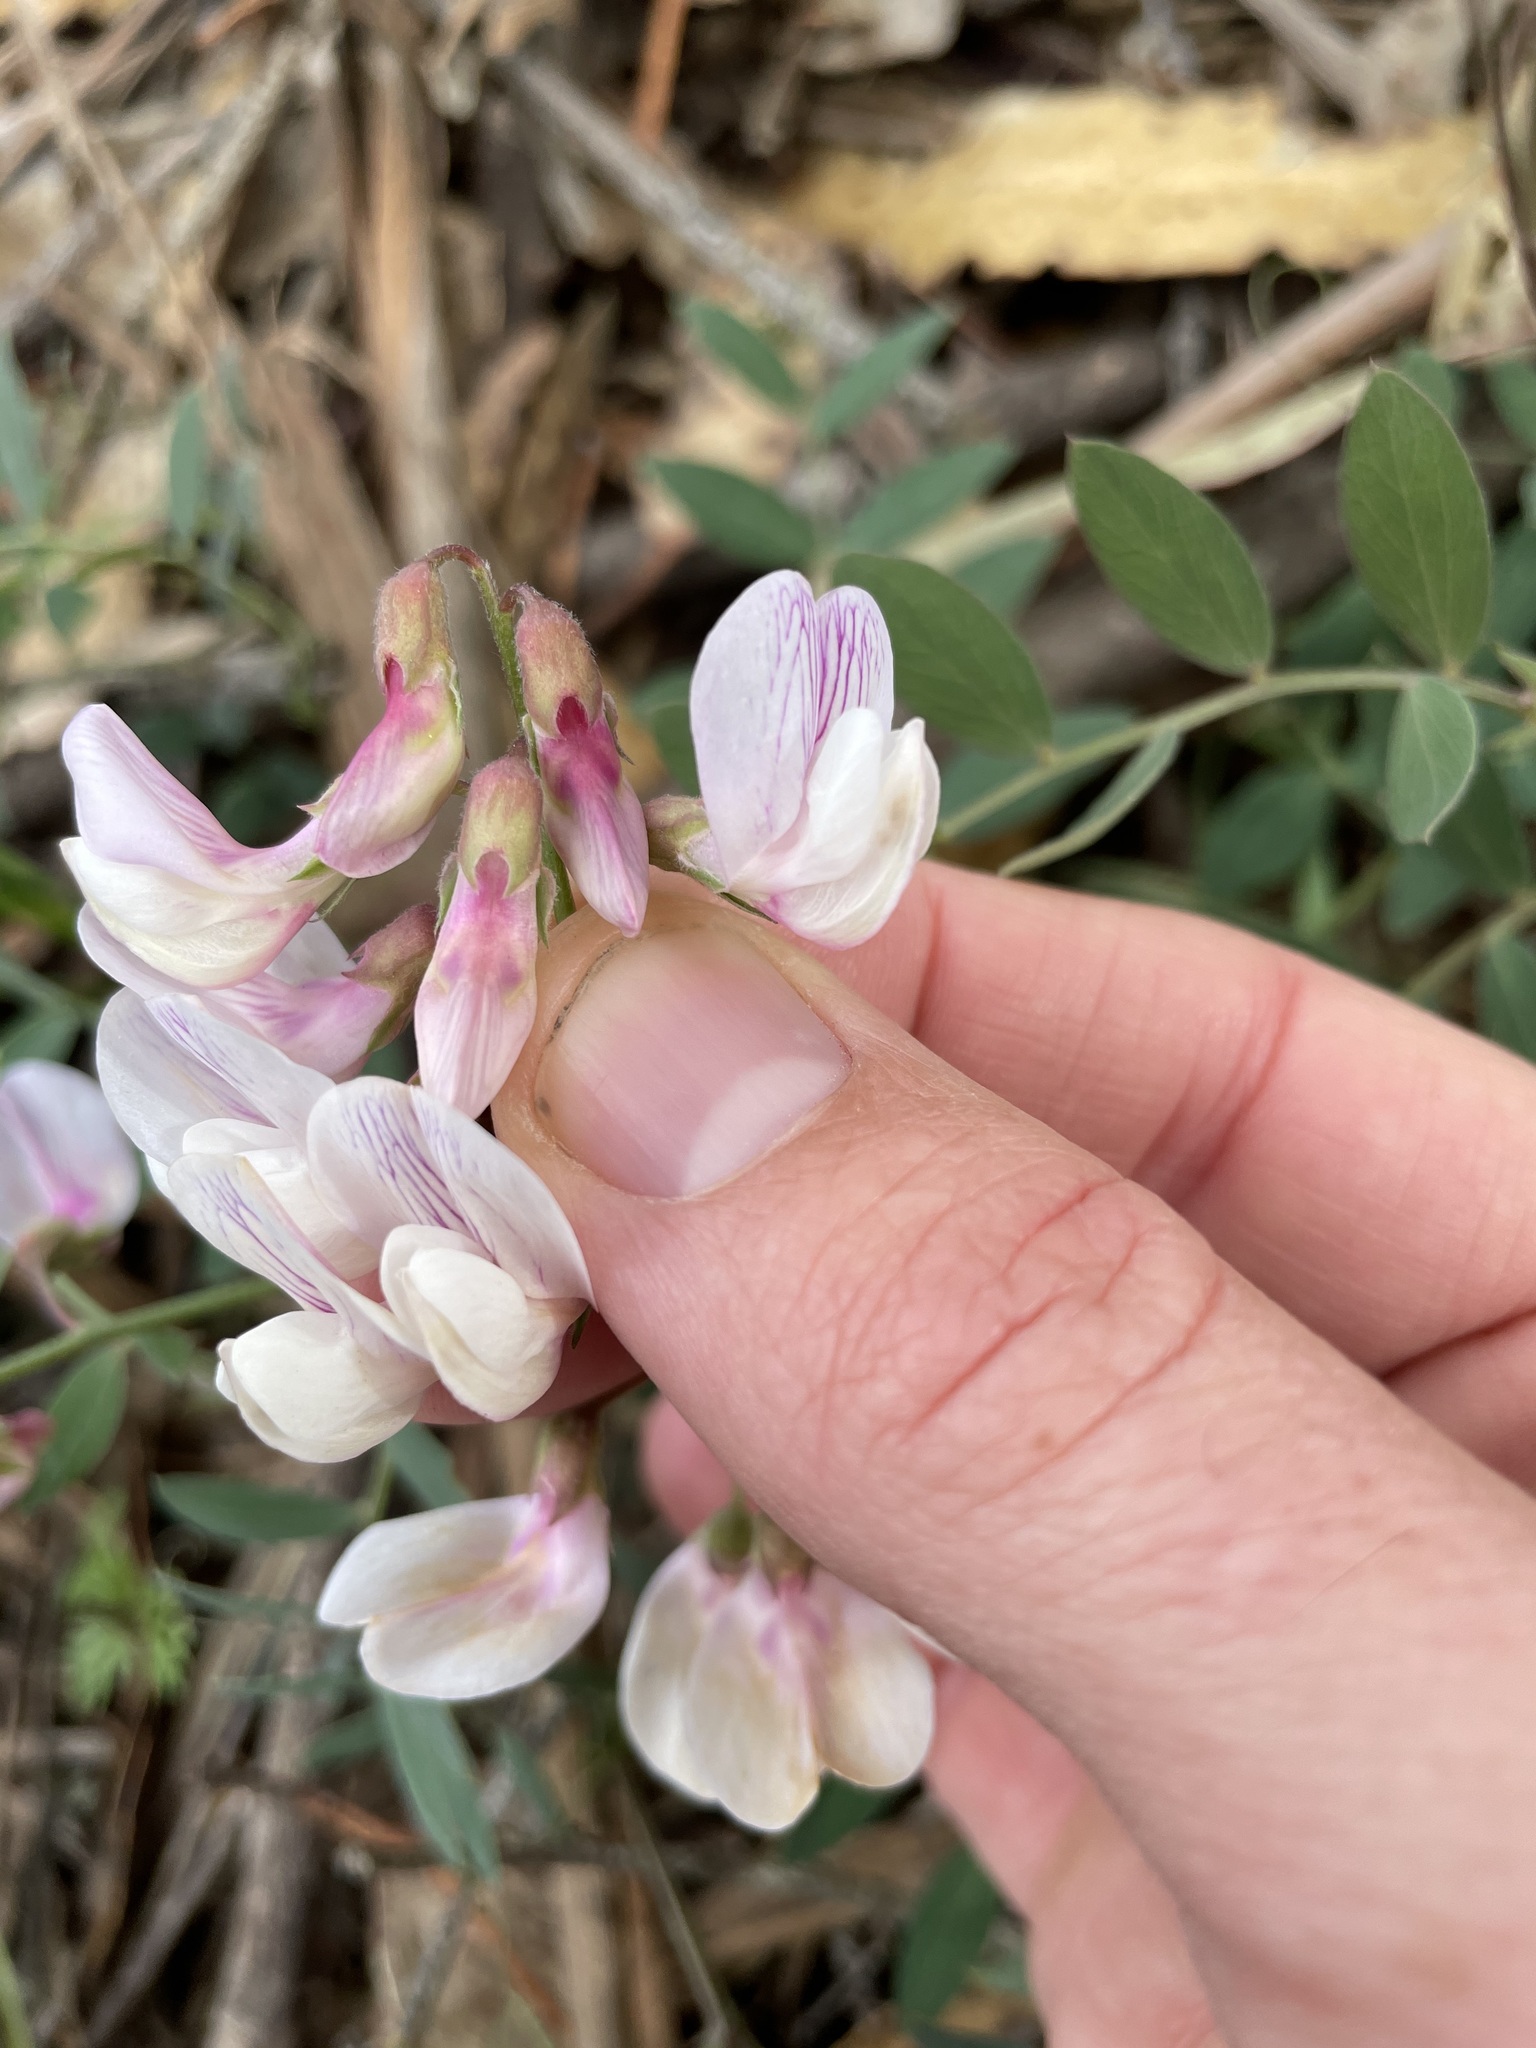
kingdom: Plantae
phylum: Tracheophyta
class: Magnoliopsida
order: Fabales
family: Fabaceae
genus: Lathyrus
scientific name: Lathyrus vestitus
